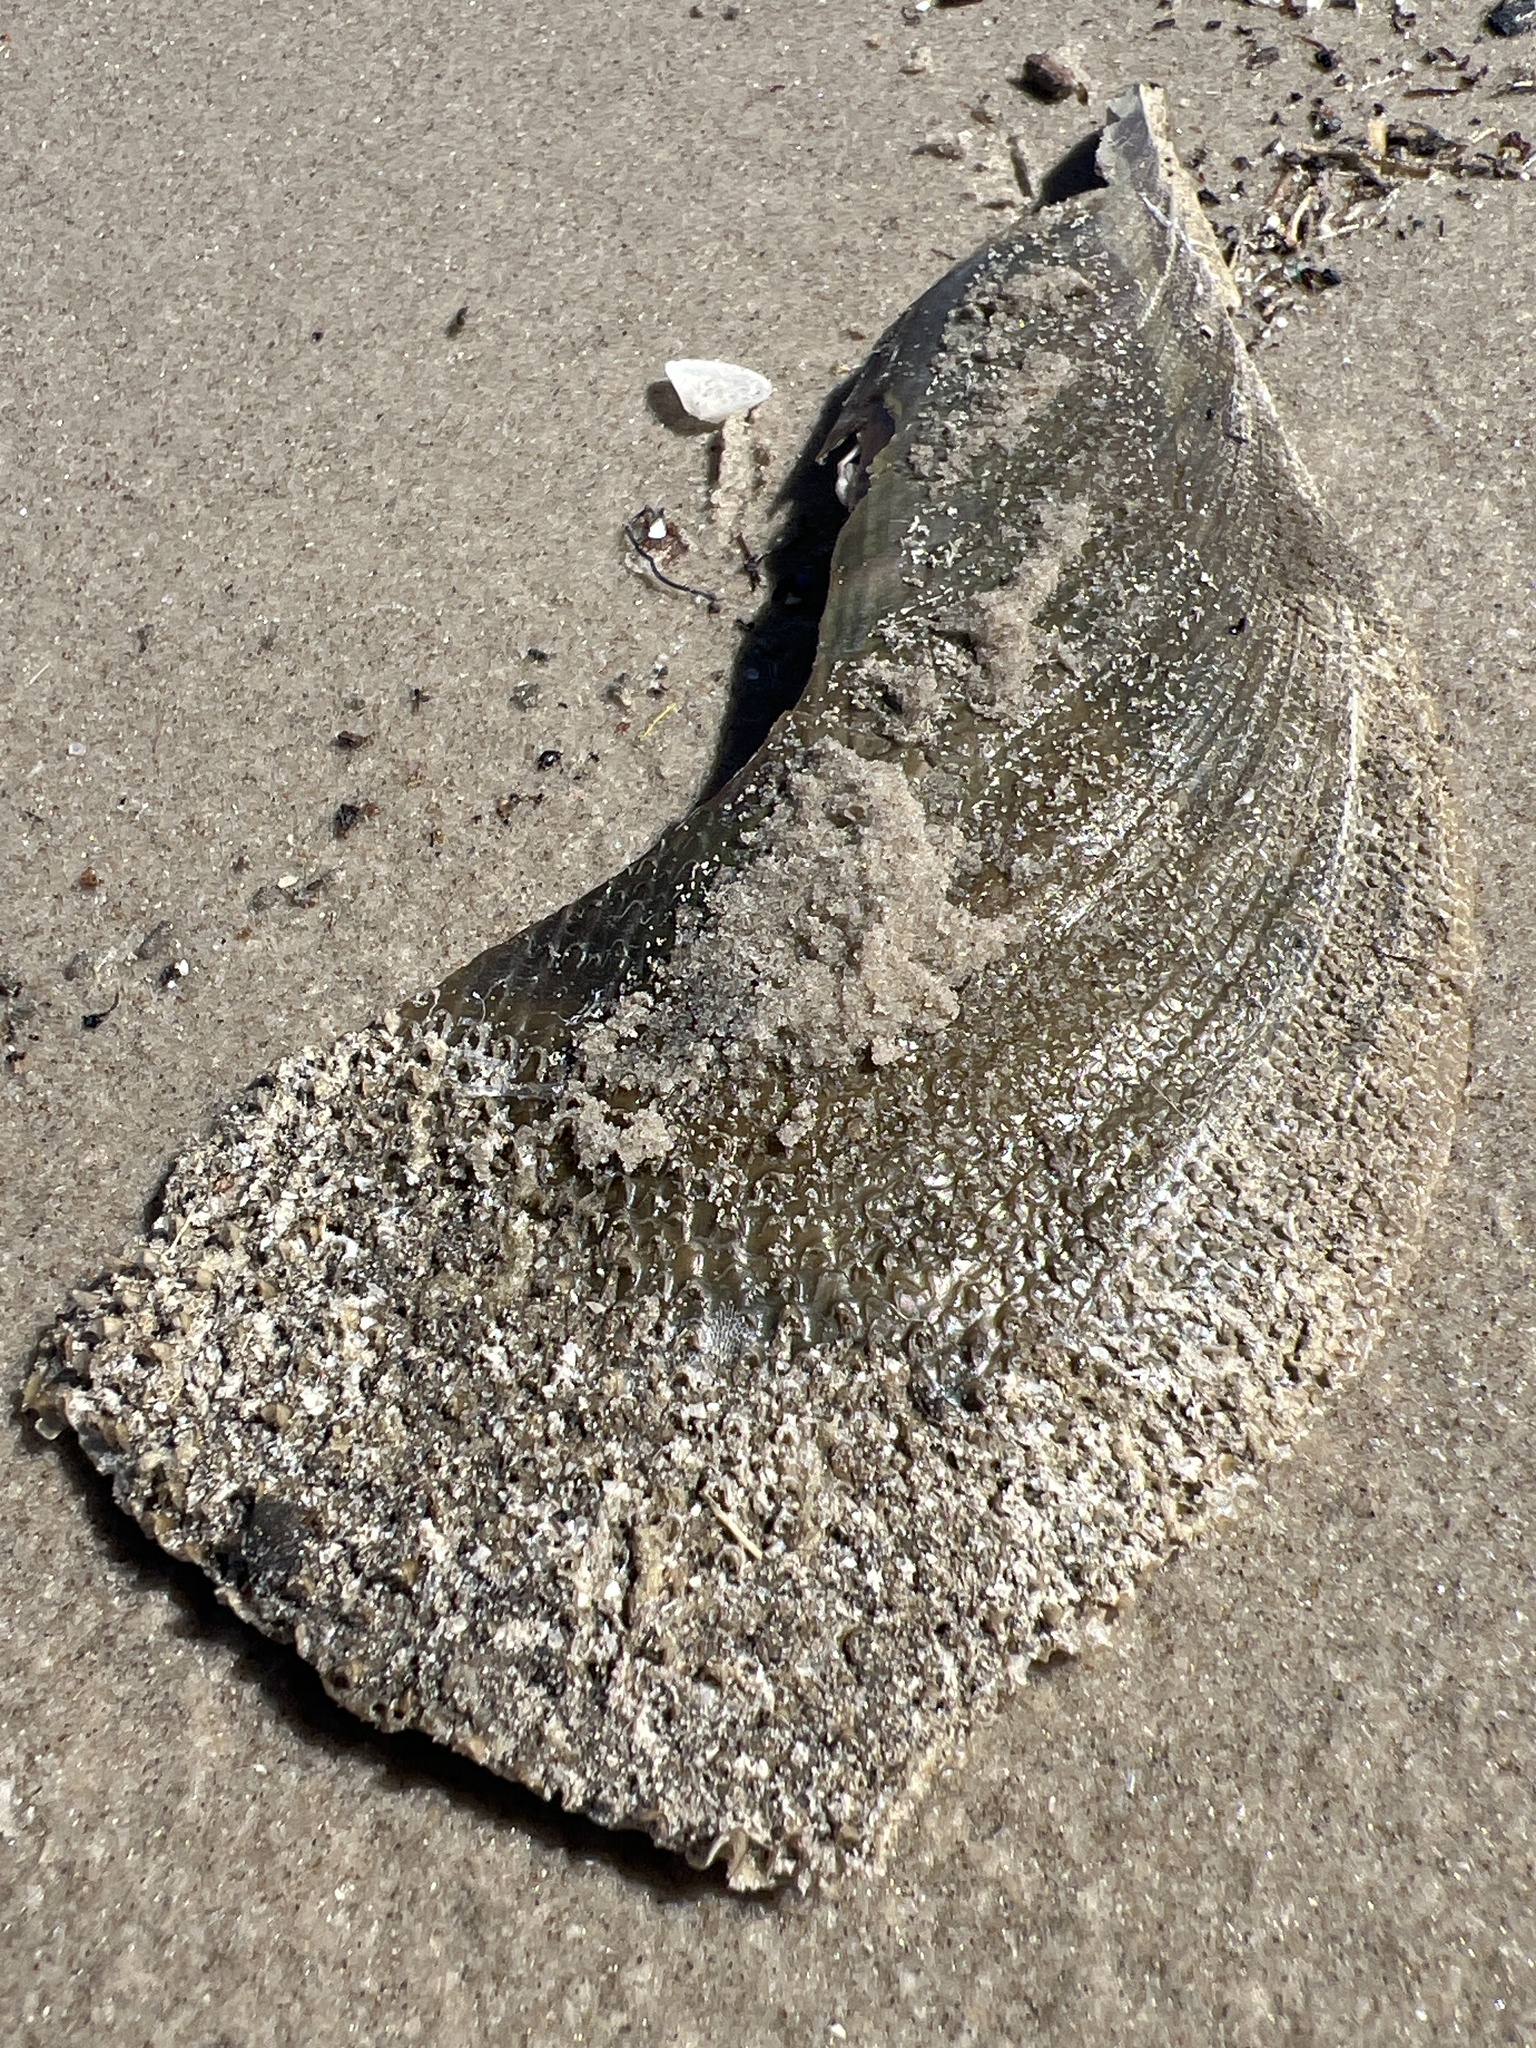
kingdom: Animalia
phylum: Mollusca
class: Bivalvia
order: Ostreida
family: Pinnidae
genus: Atrina
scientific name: Atrina serrata
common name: Saw-toothed penshell
